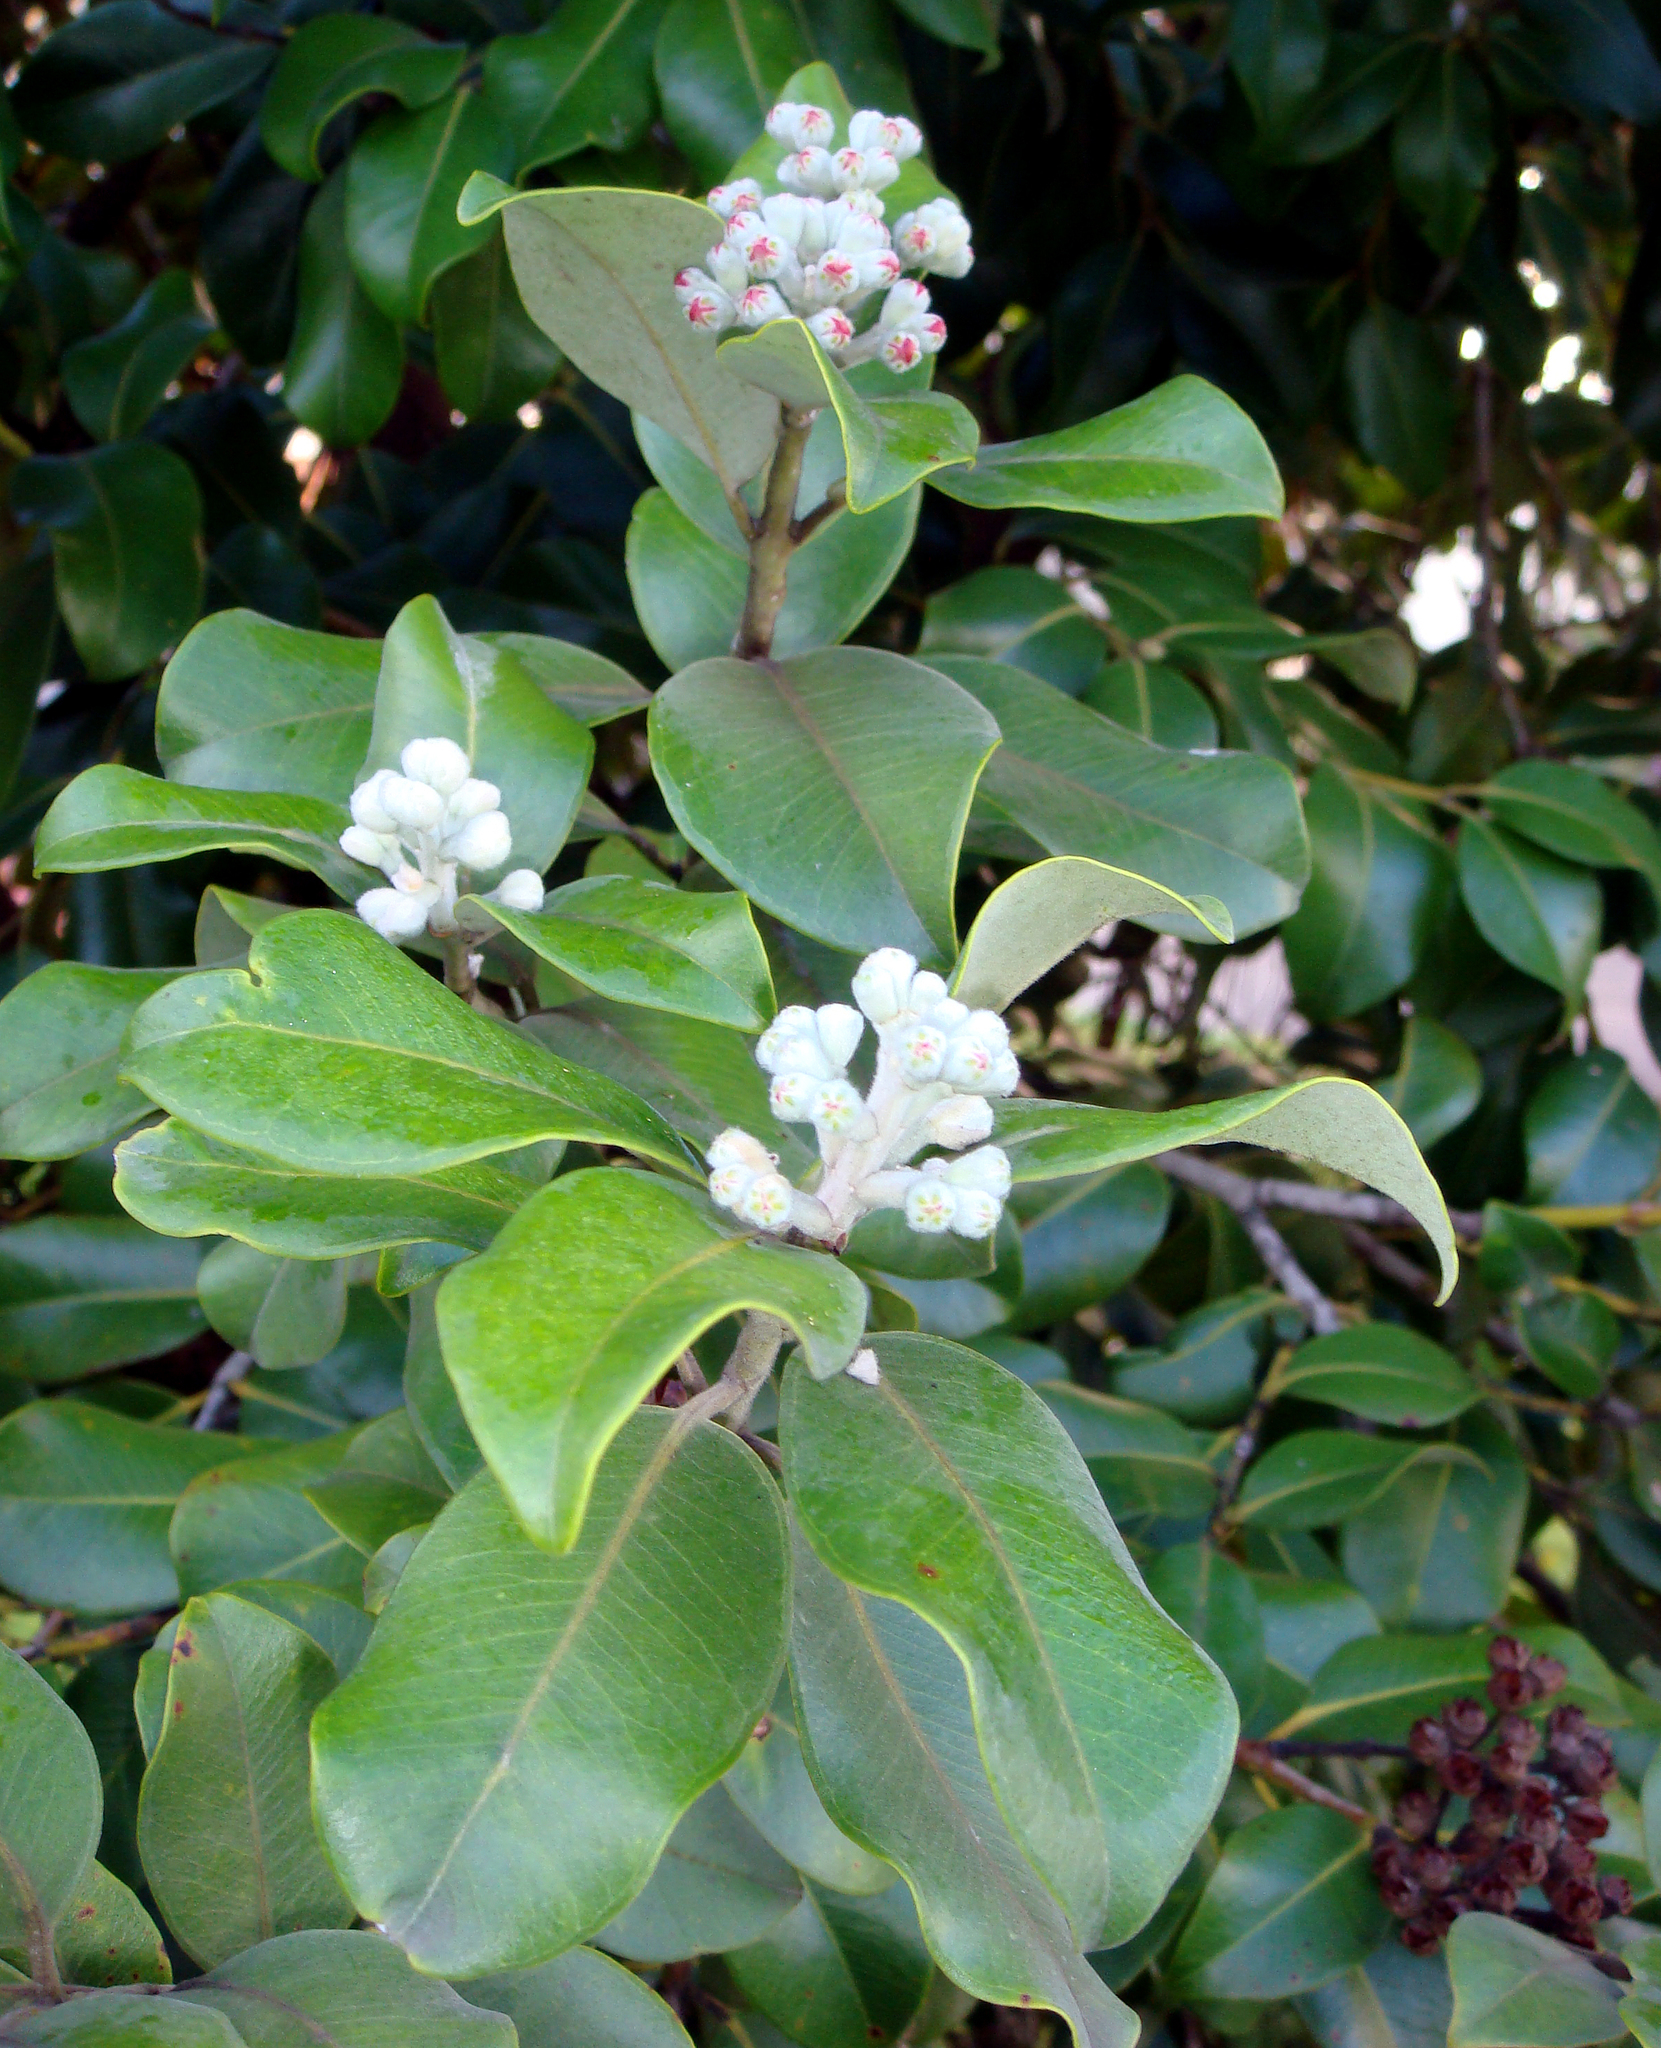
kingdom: Plantae
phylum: Tracheophyta
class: Magnoliopsida
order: Myrtales
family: Myrtaceae
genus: Metrosideros
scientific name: Metrosideros collina
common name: Vunga
